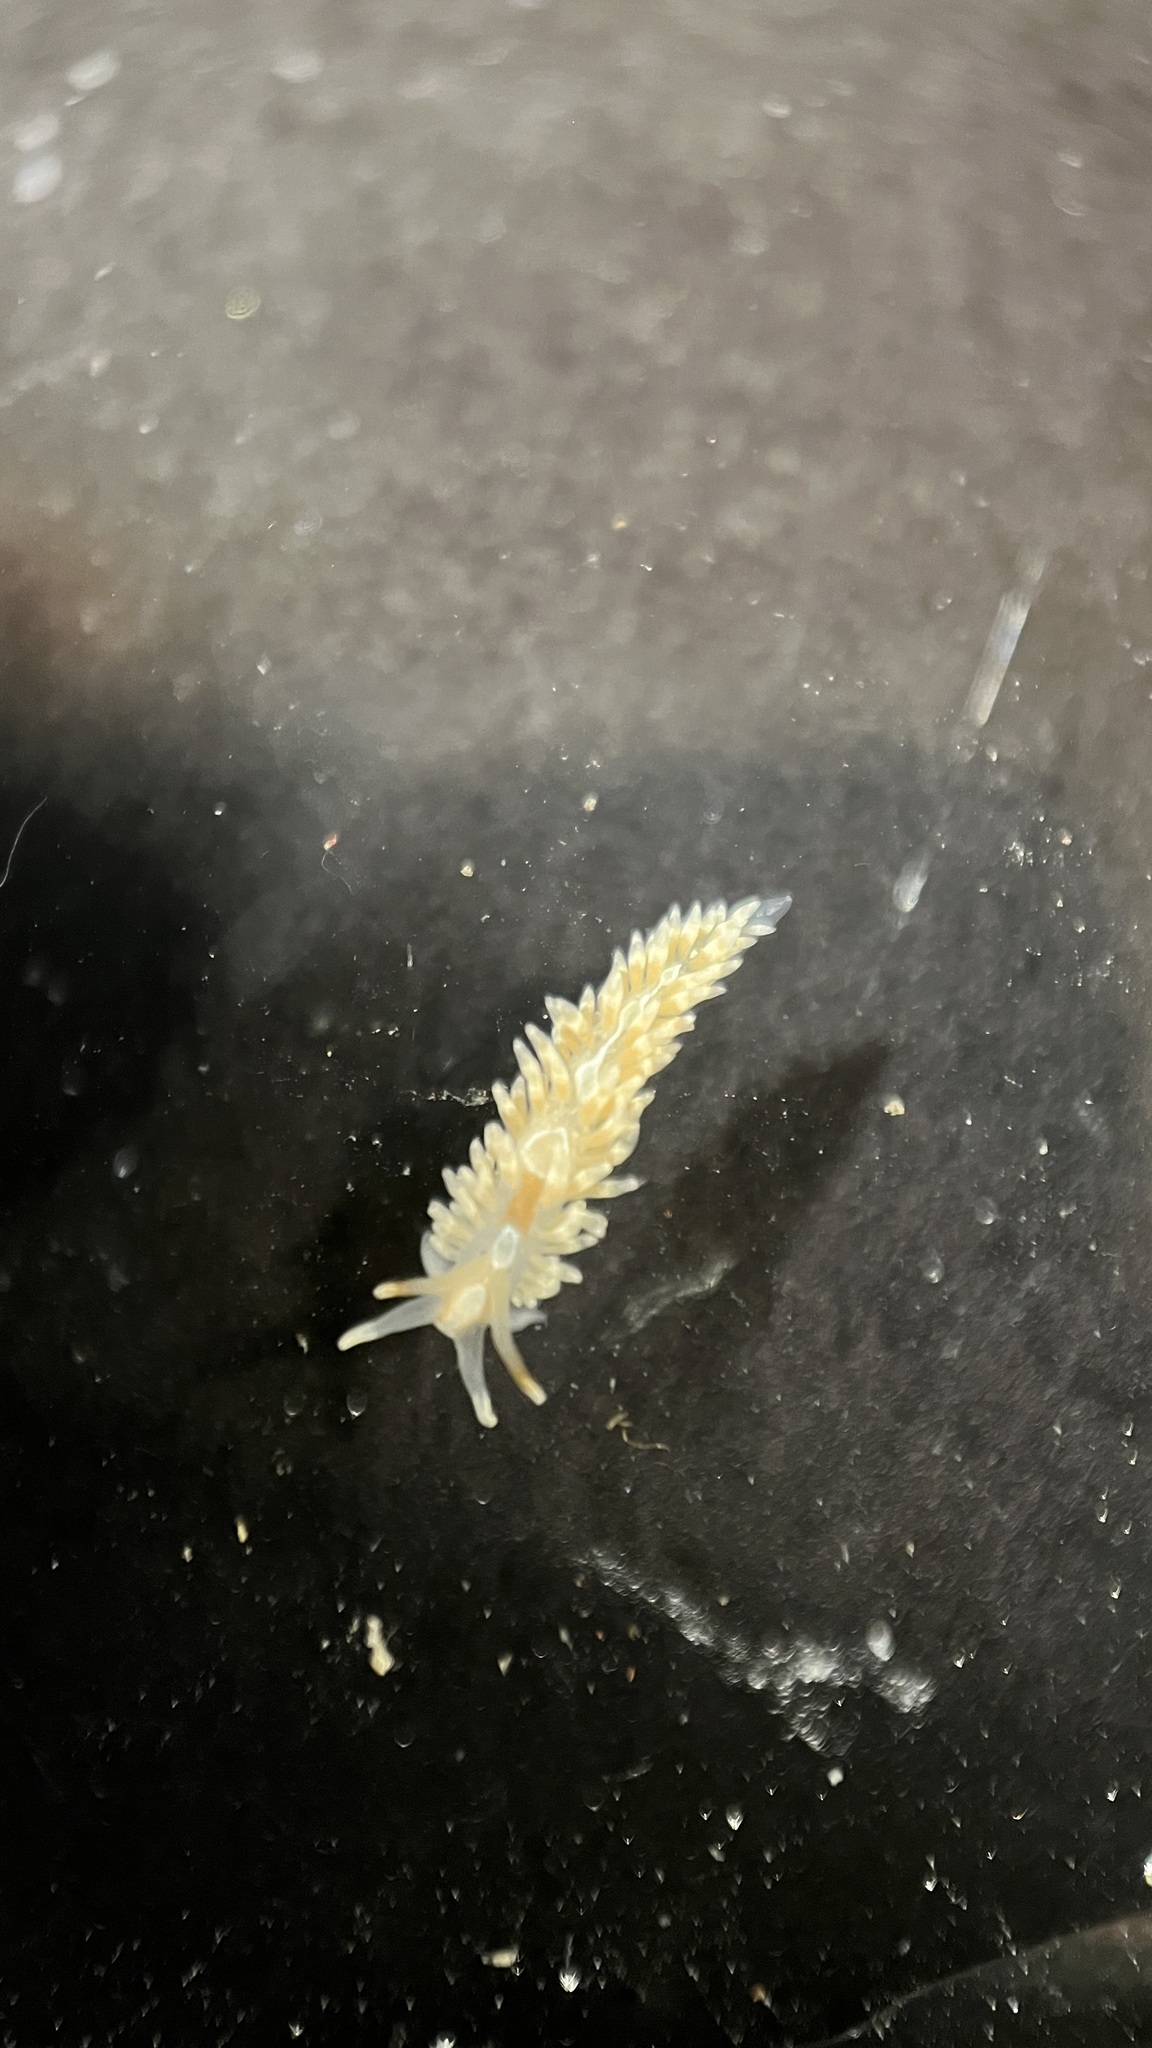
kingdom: Animalia
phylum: Mollusca
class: Gastropoda
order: Nudibranchia
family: Aeolidiidae
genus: Anteaeolidiella
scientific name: Anteaeolidiella lurana
